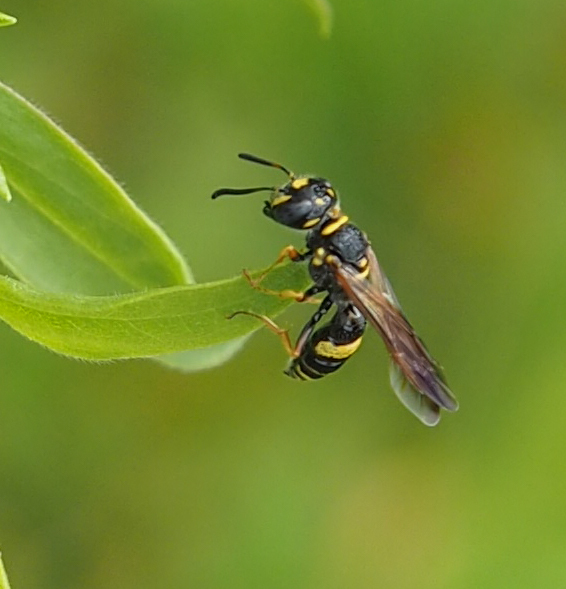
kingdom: Animalia
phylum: Arthropoda
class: Insecta
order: Hymenoptera
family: Crabronidae
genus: Philanthus
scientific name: Philanthus gibbosus
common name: Humped beewolf
